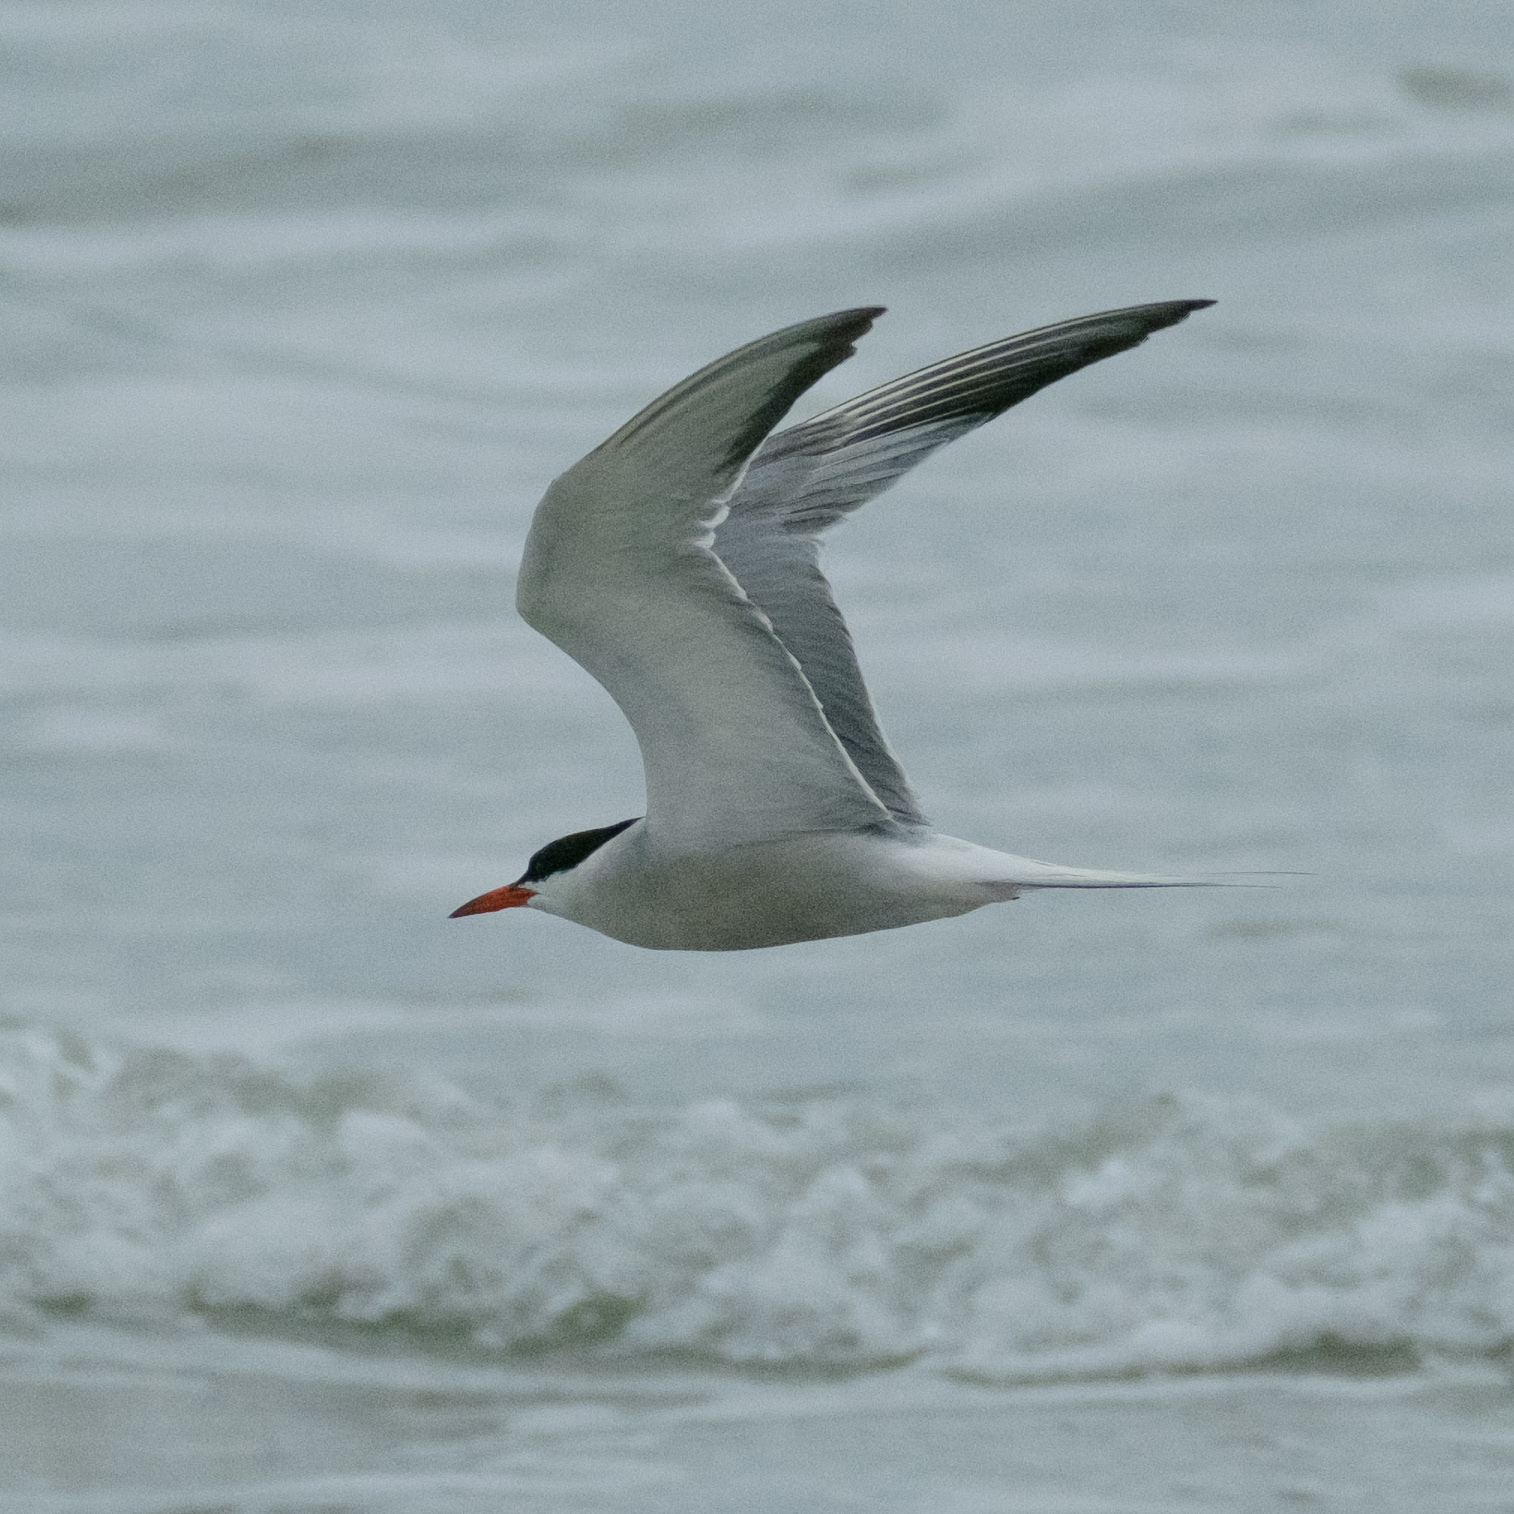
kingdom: Animalia
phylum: Chordata
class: Aves
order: Charadriiformes
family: Laridae
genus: Sterna
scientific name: Sterna hirundo
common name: Common tern
